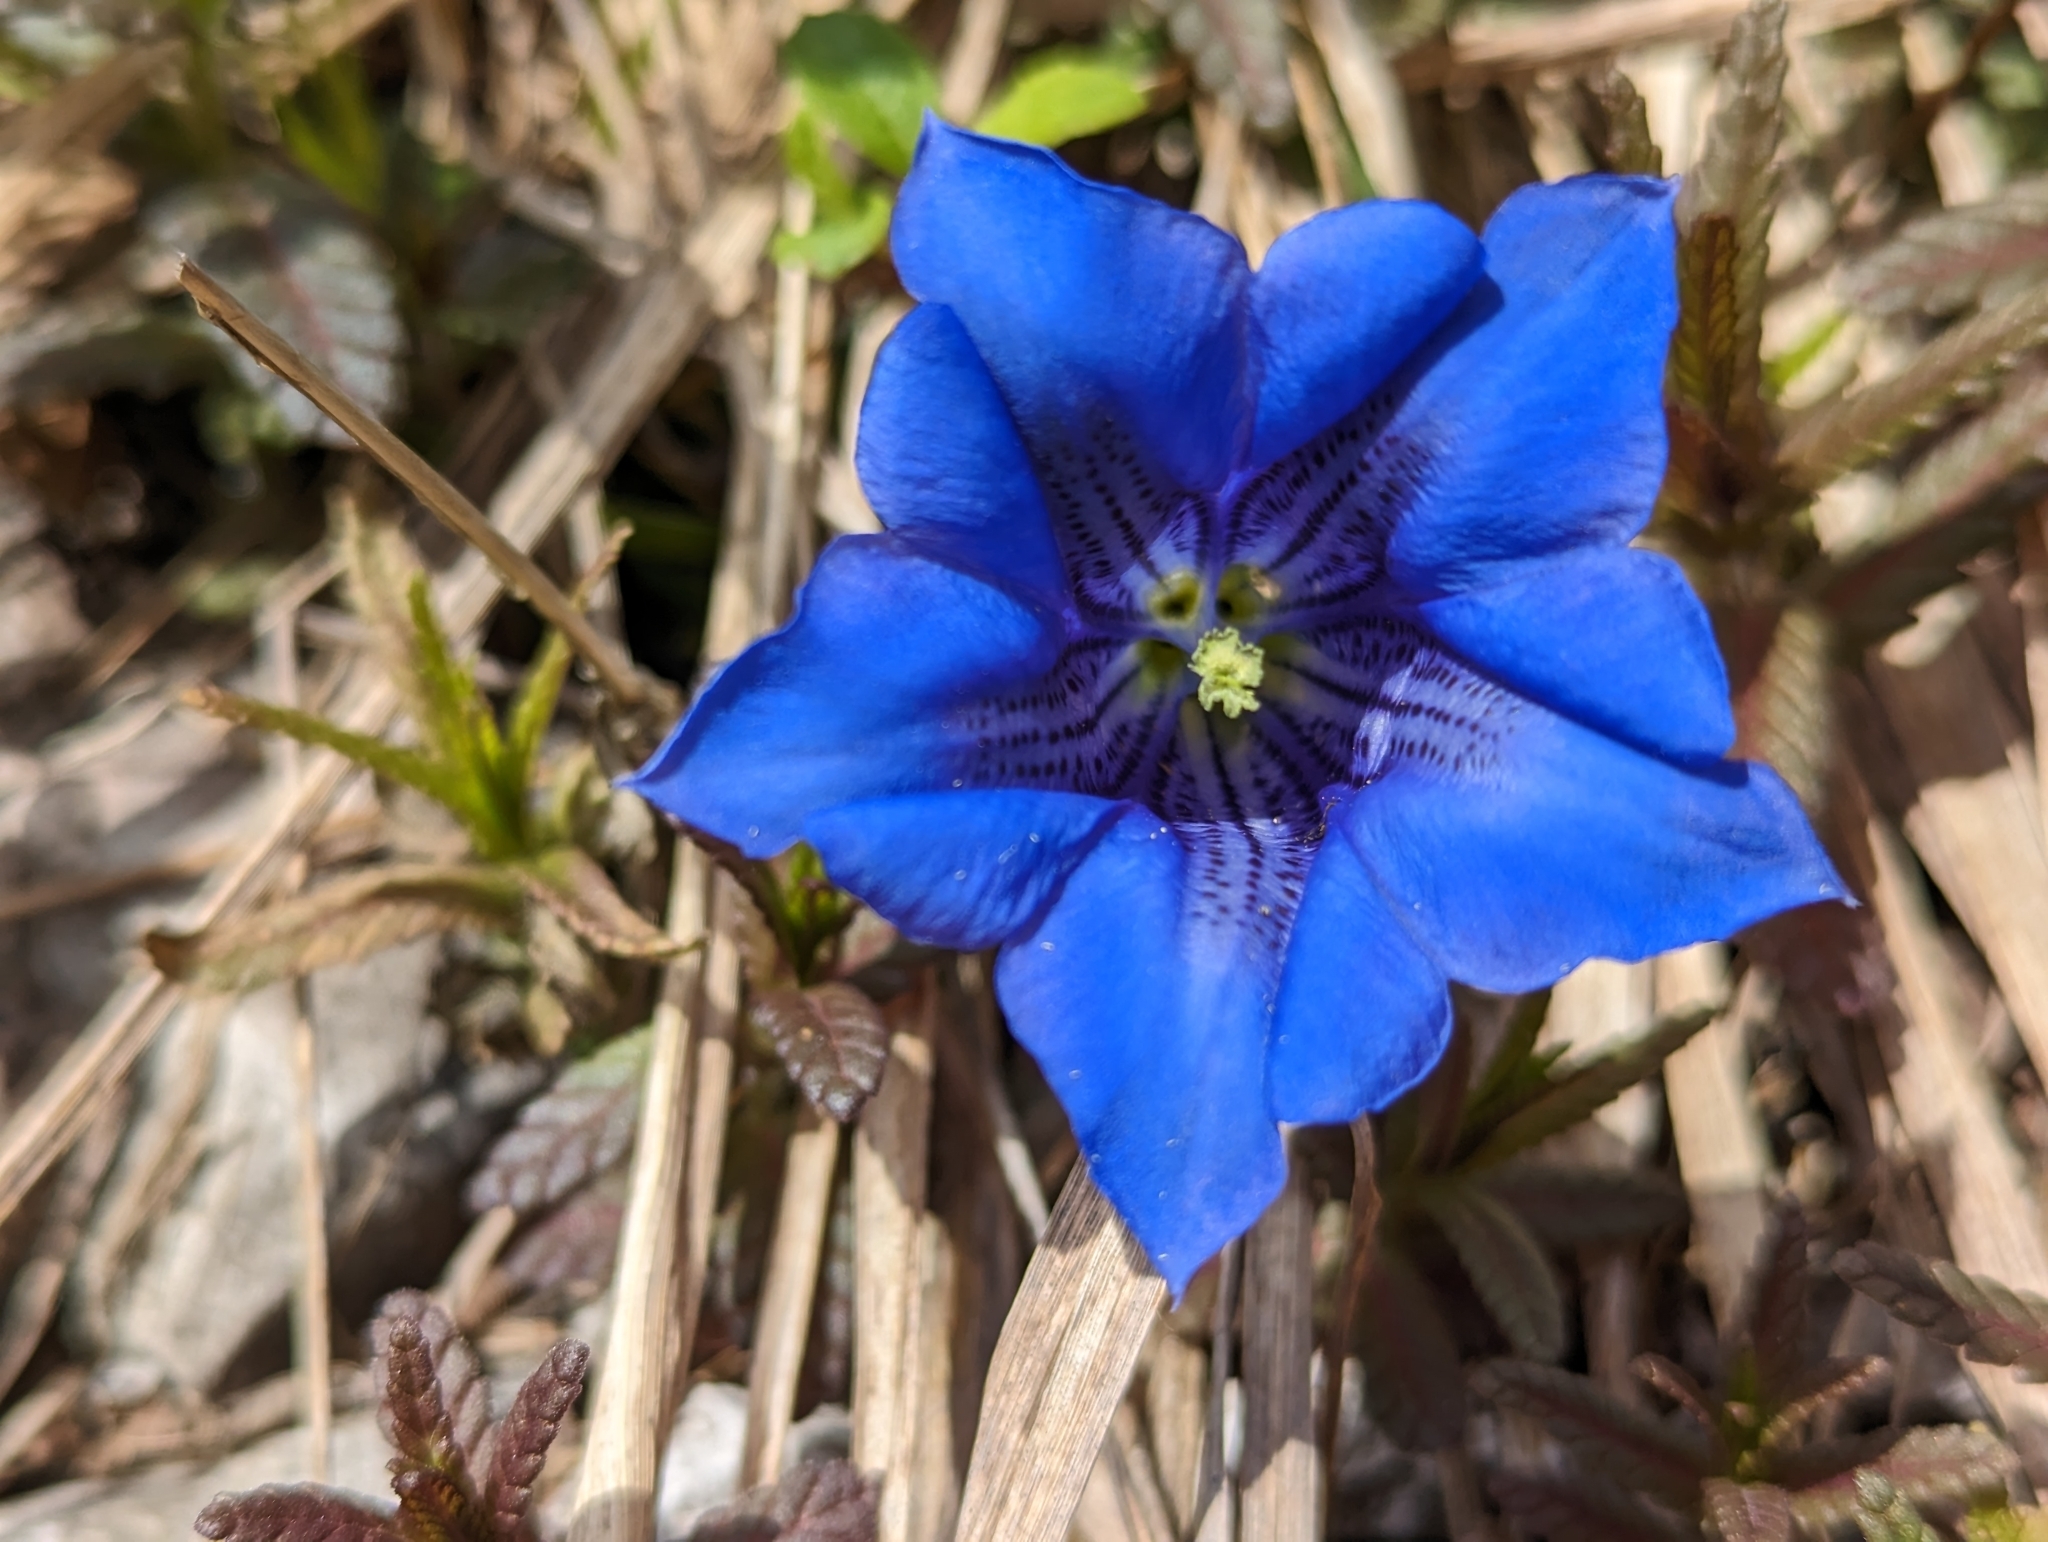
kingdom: Plantae
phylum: Tracheophyta
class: Magnoliopsida
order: Gentianales
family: Gentianaceae
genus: Gentiana
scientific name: Gentiana clusii
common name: Trumpet gentian
